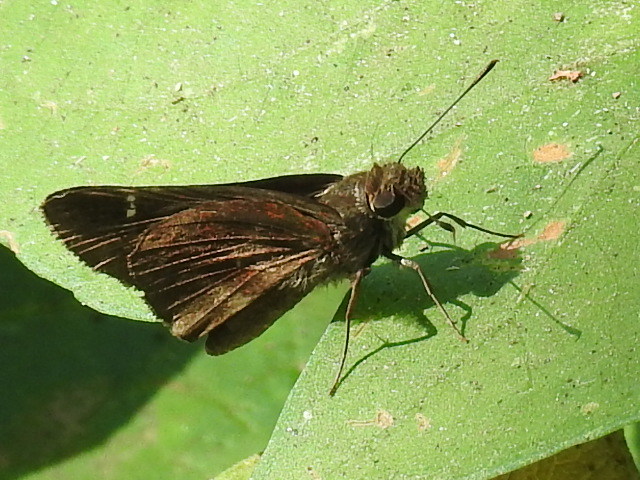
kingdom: Animalia
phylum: Arthropoda
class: Insecta
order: Lepidoptera
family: Hesperiidae
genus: Lerema
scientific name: Lerema accius
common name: Clouded skipper
